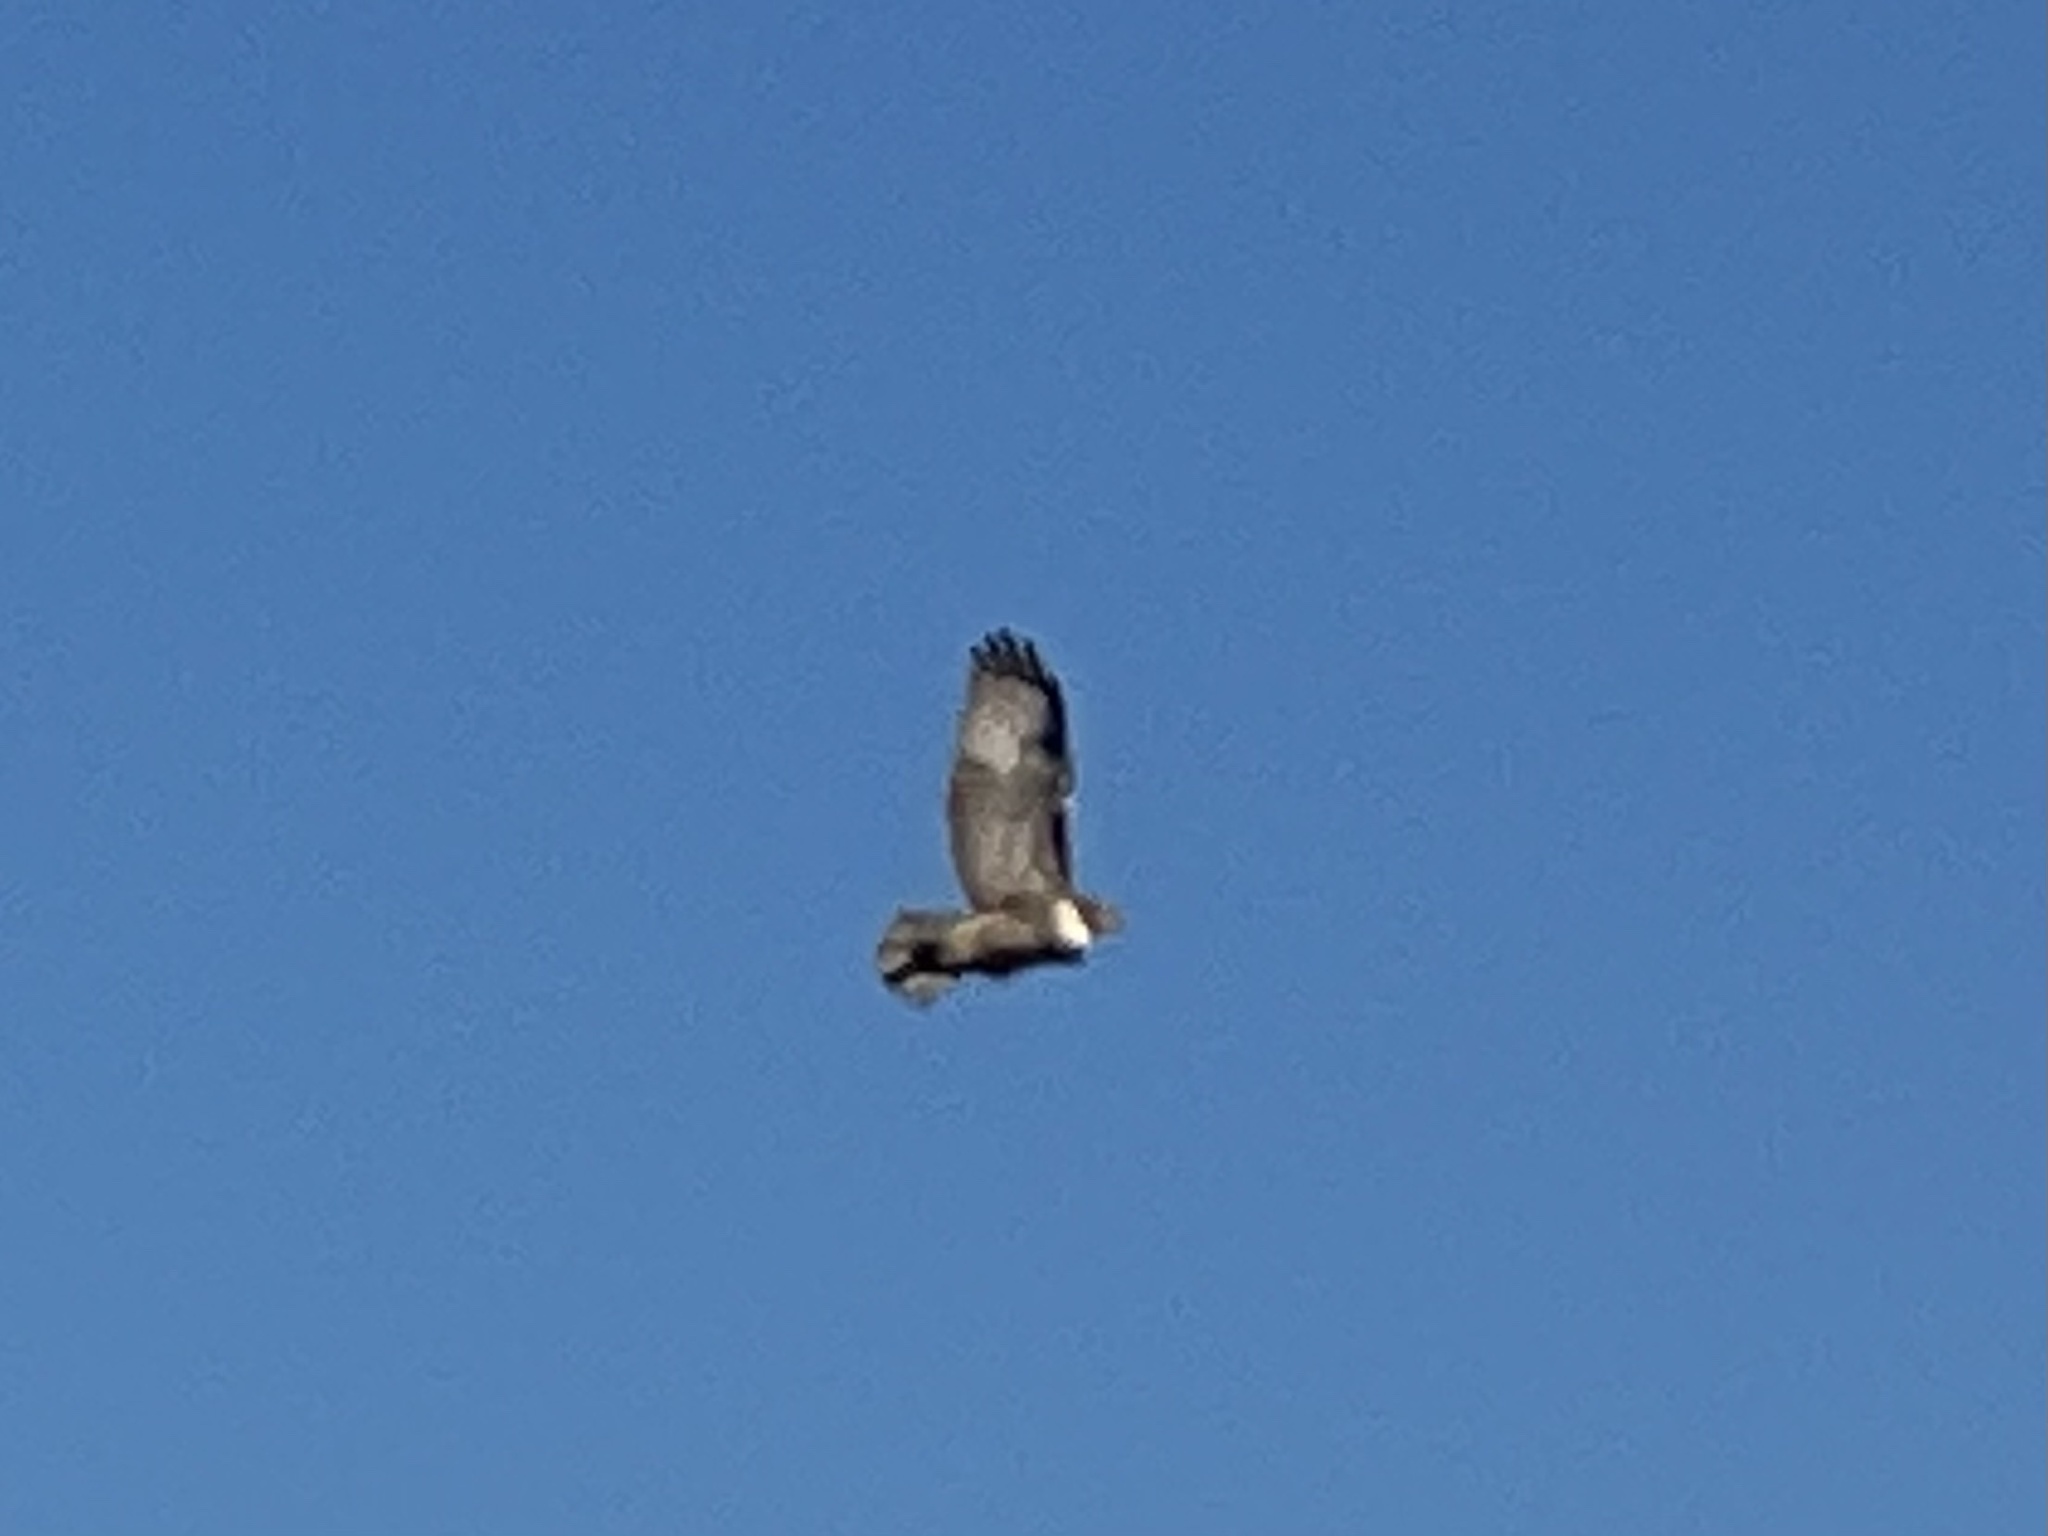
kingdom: Animalia
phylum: Chordata
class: Aves
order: Accipitriformes
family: Accipitridae
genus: Buteo
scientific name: Buteo jamaicensis
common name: Red-tailed hawk
